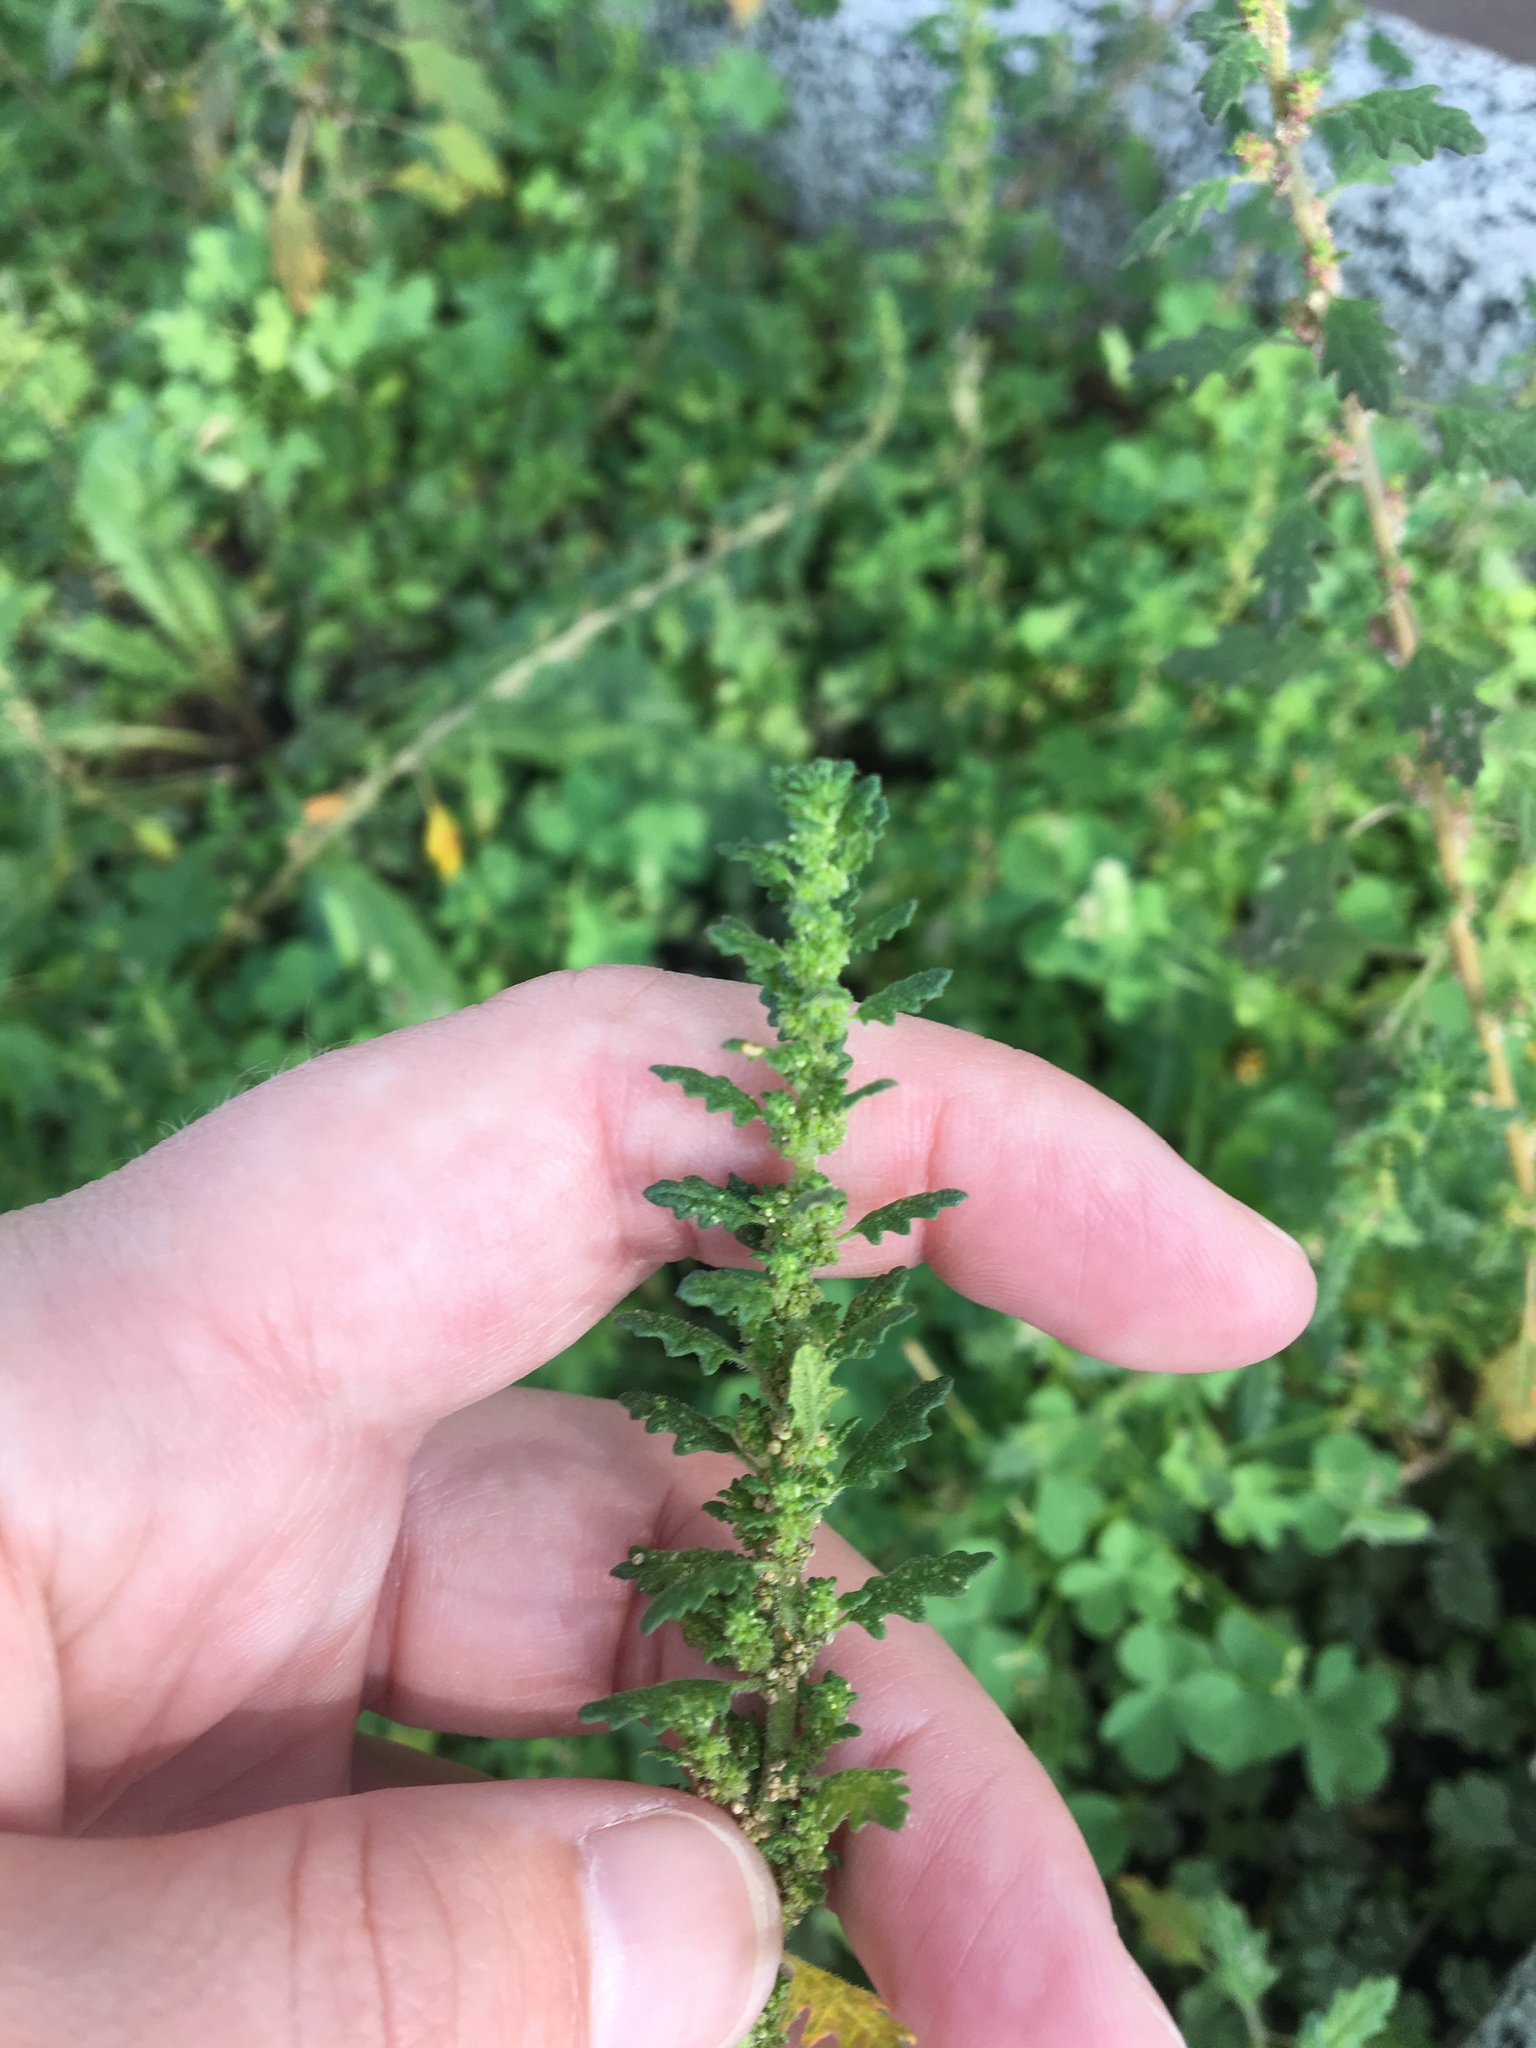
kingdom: Plantae
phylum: Tracheophyta
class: Magnoliopsida
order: Caryophyllales
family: Amaranthaceae
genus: Dysphania
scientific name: Dysphania pumilio
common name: Clammy goosefoot
